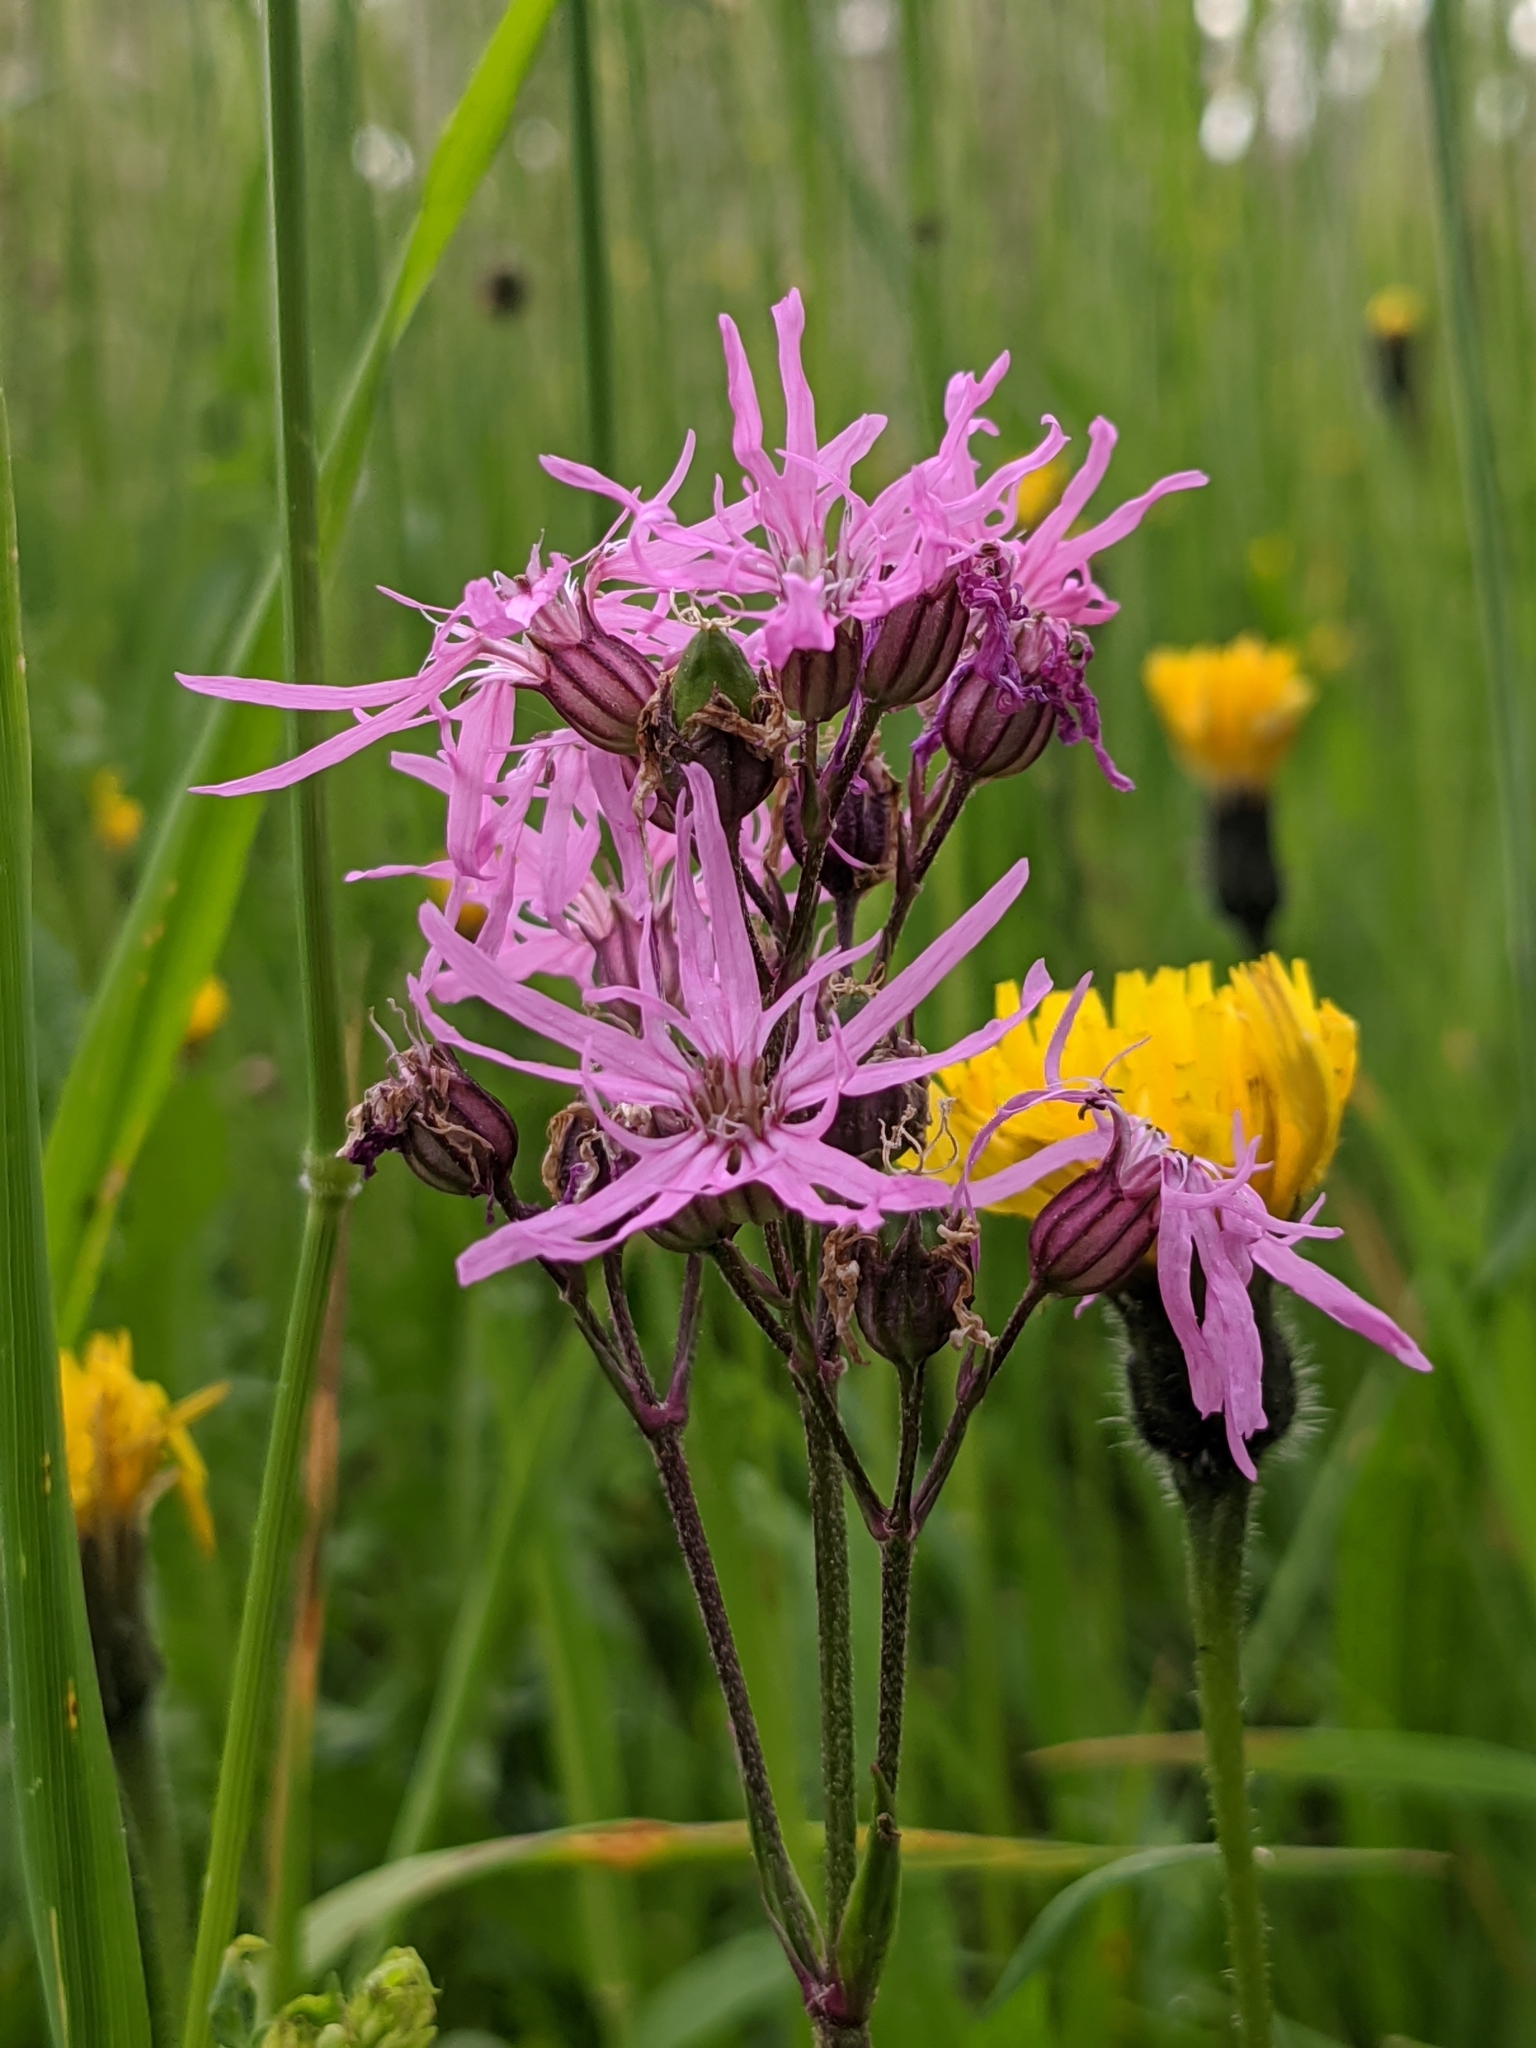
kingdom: Plantae
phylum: Tracheophyta
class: Magnoliopsida
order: Caryophyllales
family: Caryophyllaceae
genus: Silene
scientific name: Silene flos-cuculi
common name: Ragged-robin
